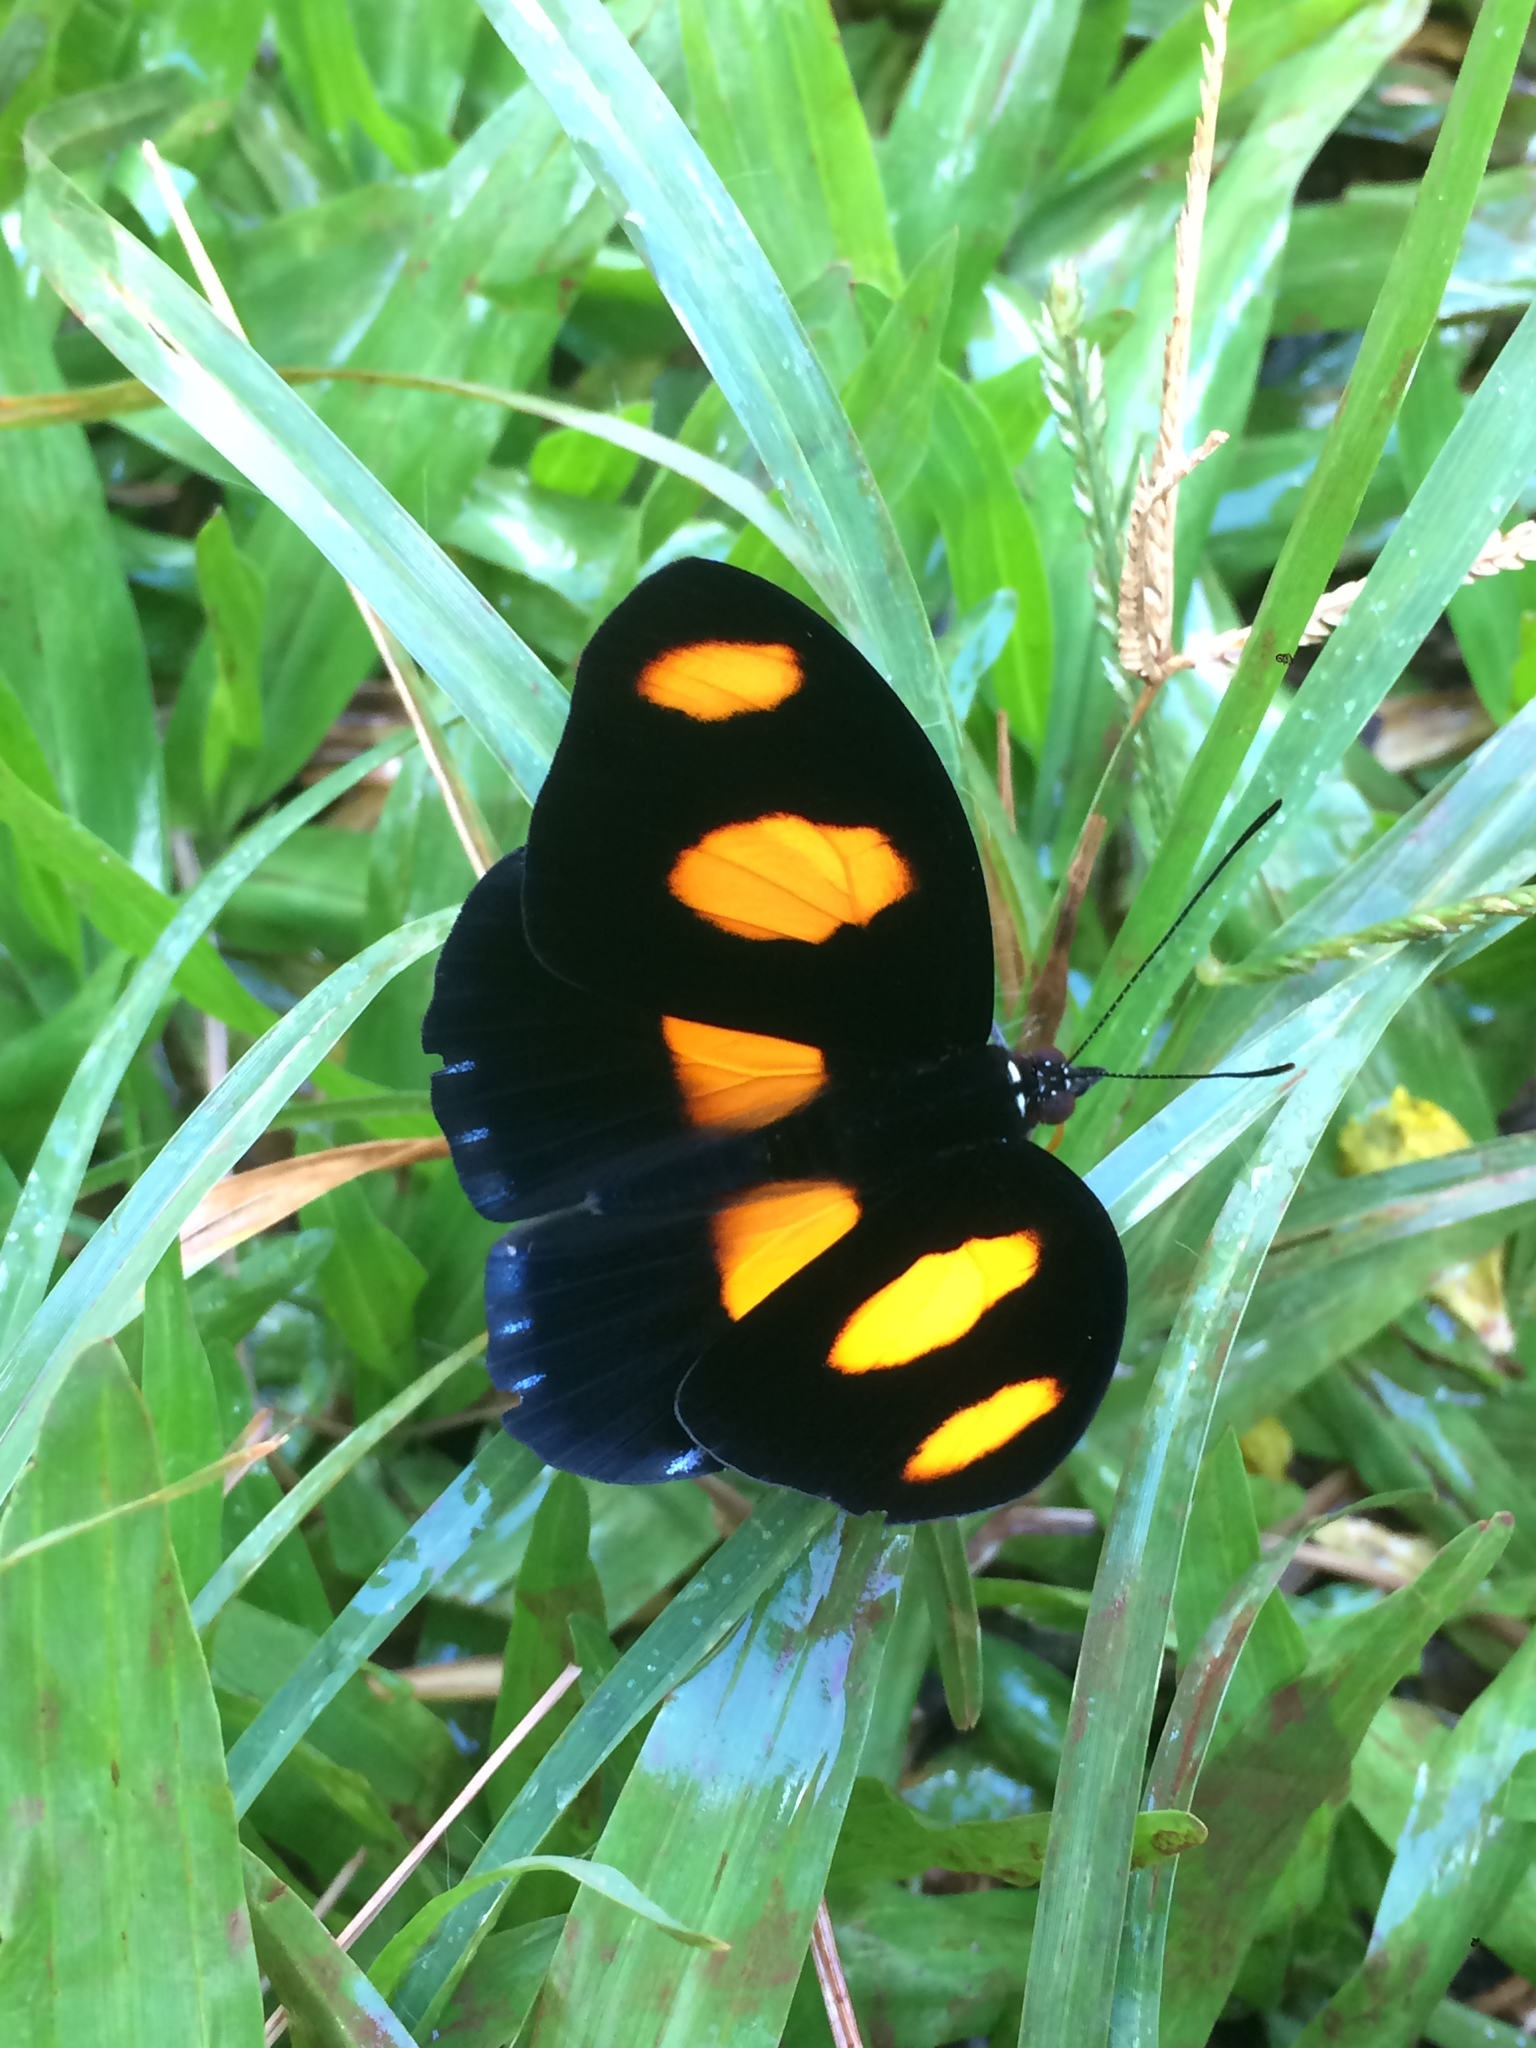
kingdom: Animalia
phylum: Arthropoda
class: Insecta
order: Lepidoptera
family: Nymphalidae
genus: Catonephele
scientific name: Catonephele numilia
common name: Blue-frosted banner
